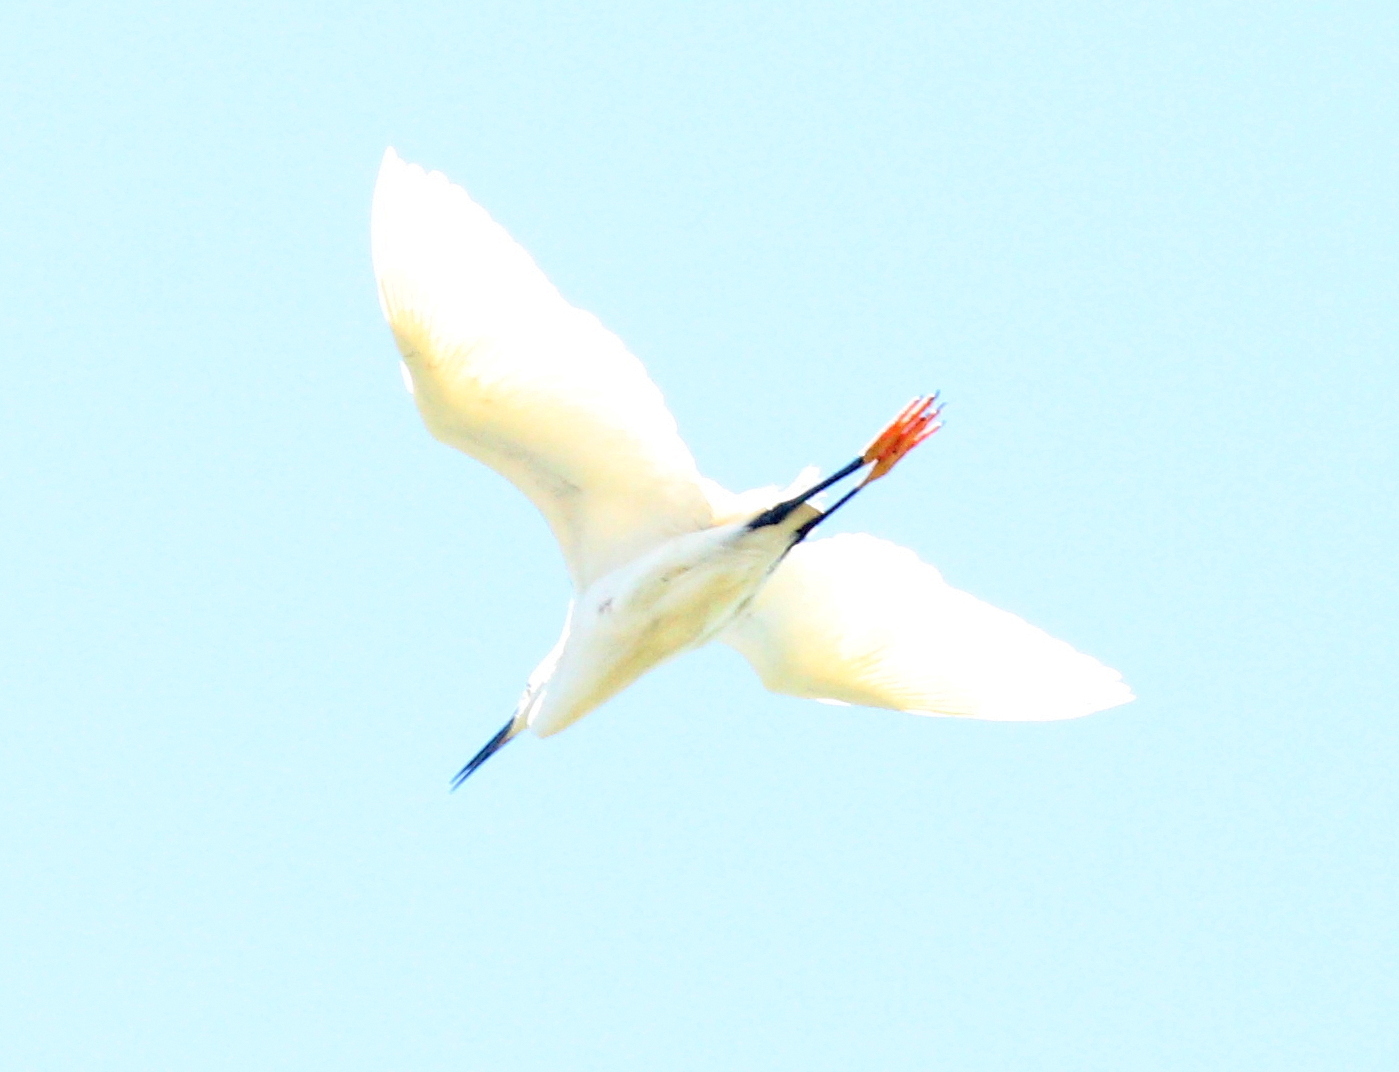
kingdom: Animalia
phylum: Chordata
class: Aves
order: Pelecaniformes
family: Ardeidae
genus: Egretta
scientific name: Egretta thula
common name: Snowy egret
